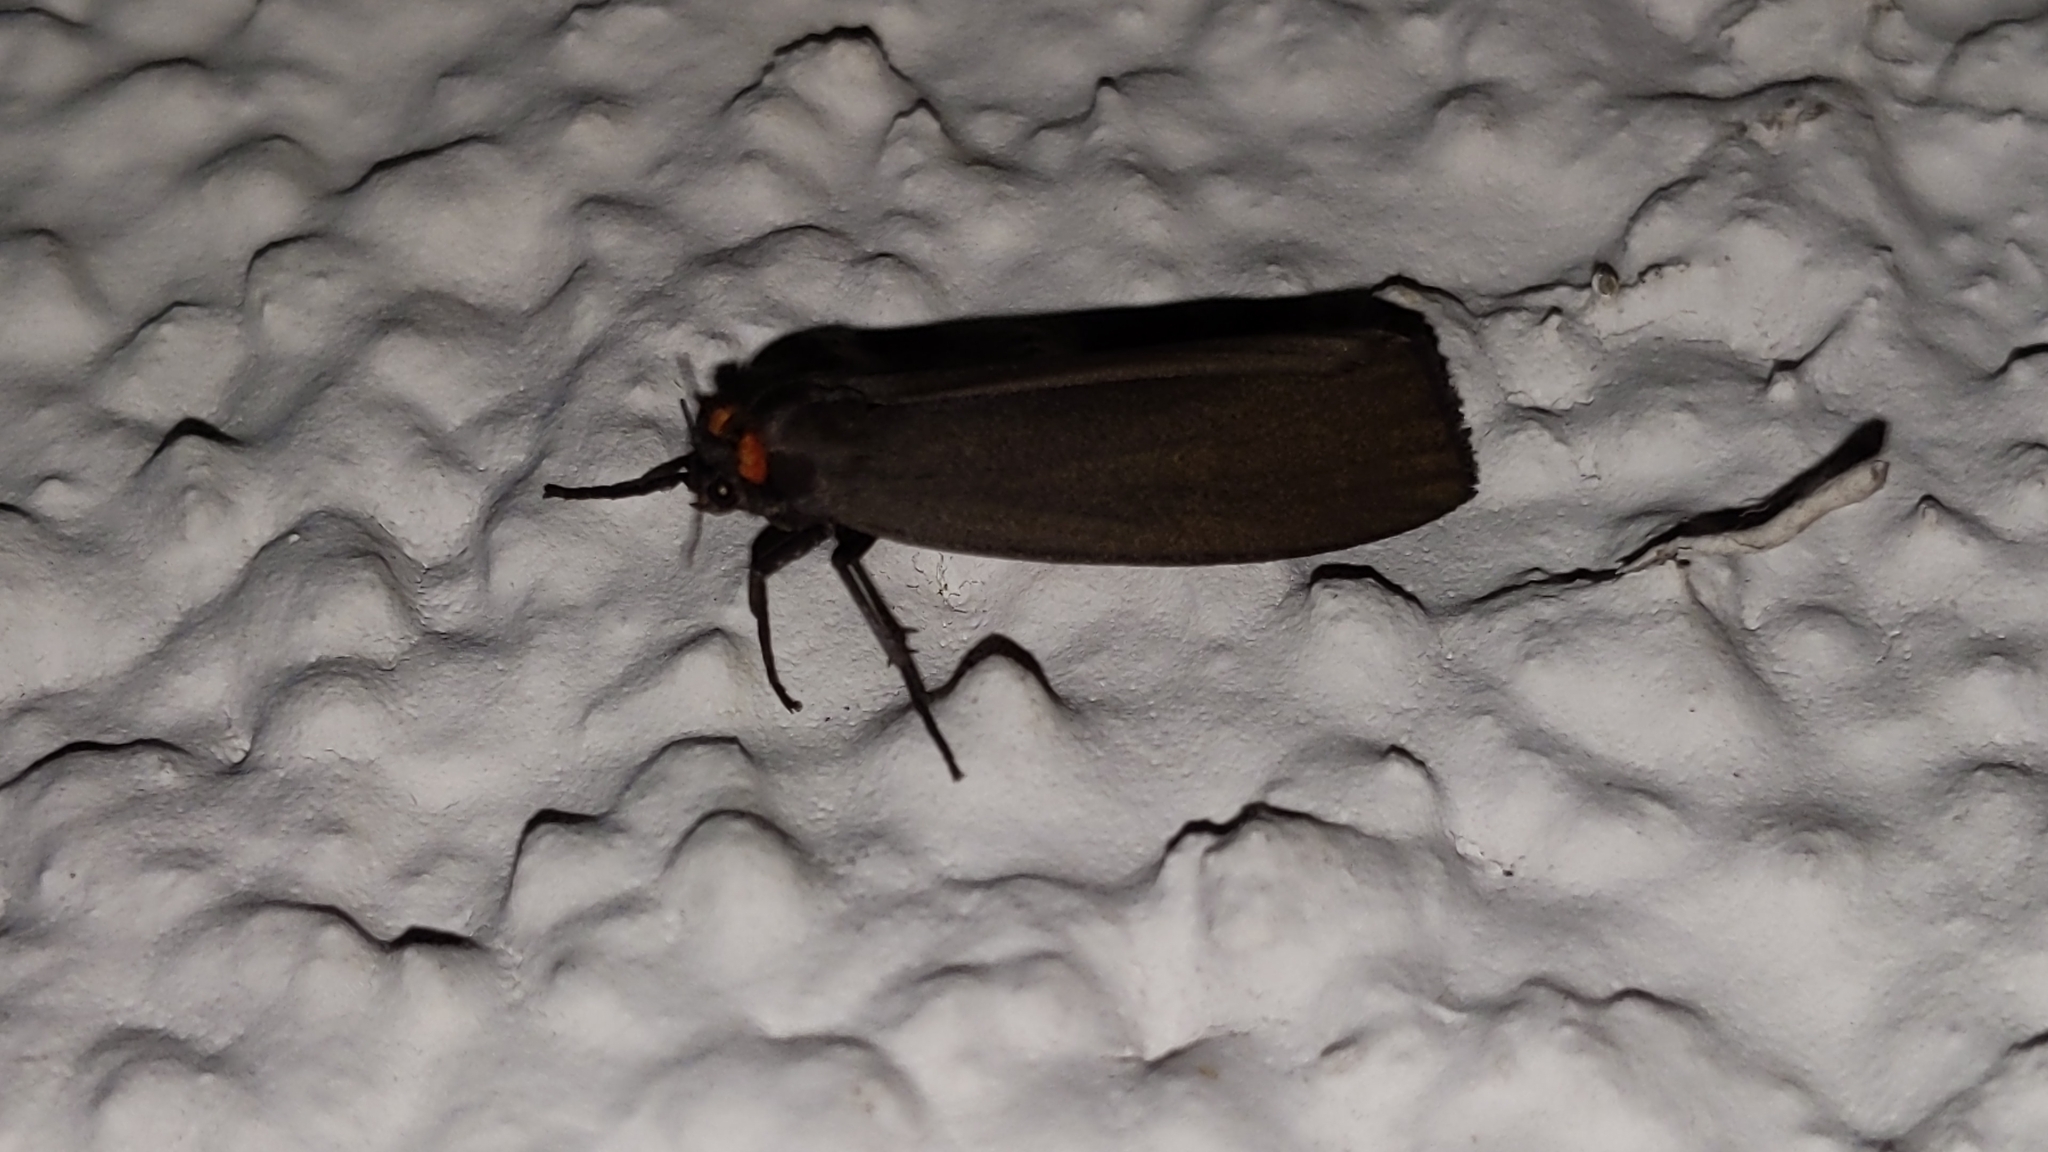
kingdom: Animalia
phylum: Arthropoda
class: Insecta
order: Lepidoptera
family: Erebidae
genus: Atolmis
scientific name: Atolmis rubricollis
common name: Red-necked footman
